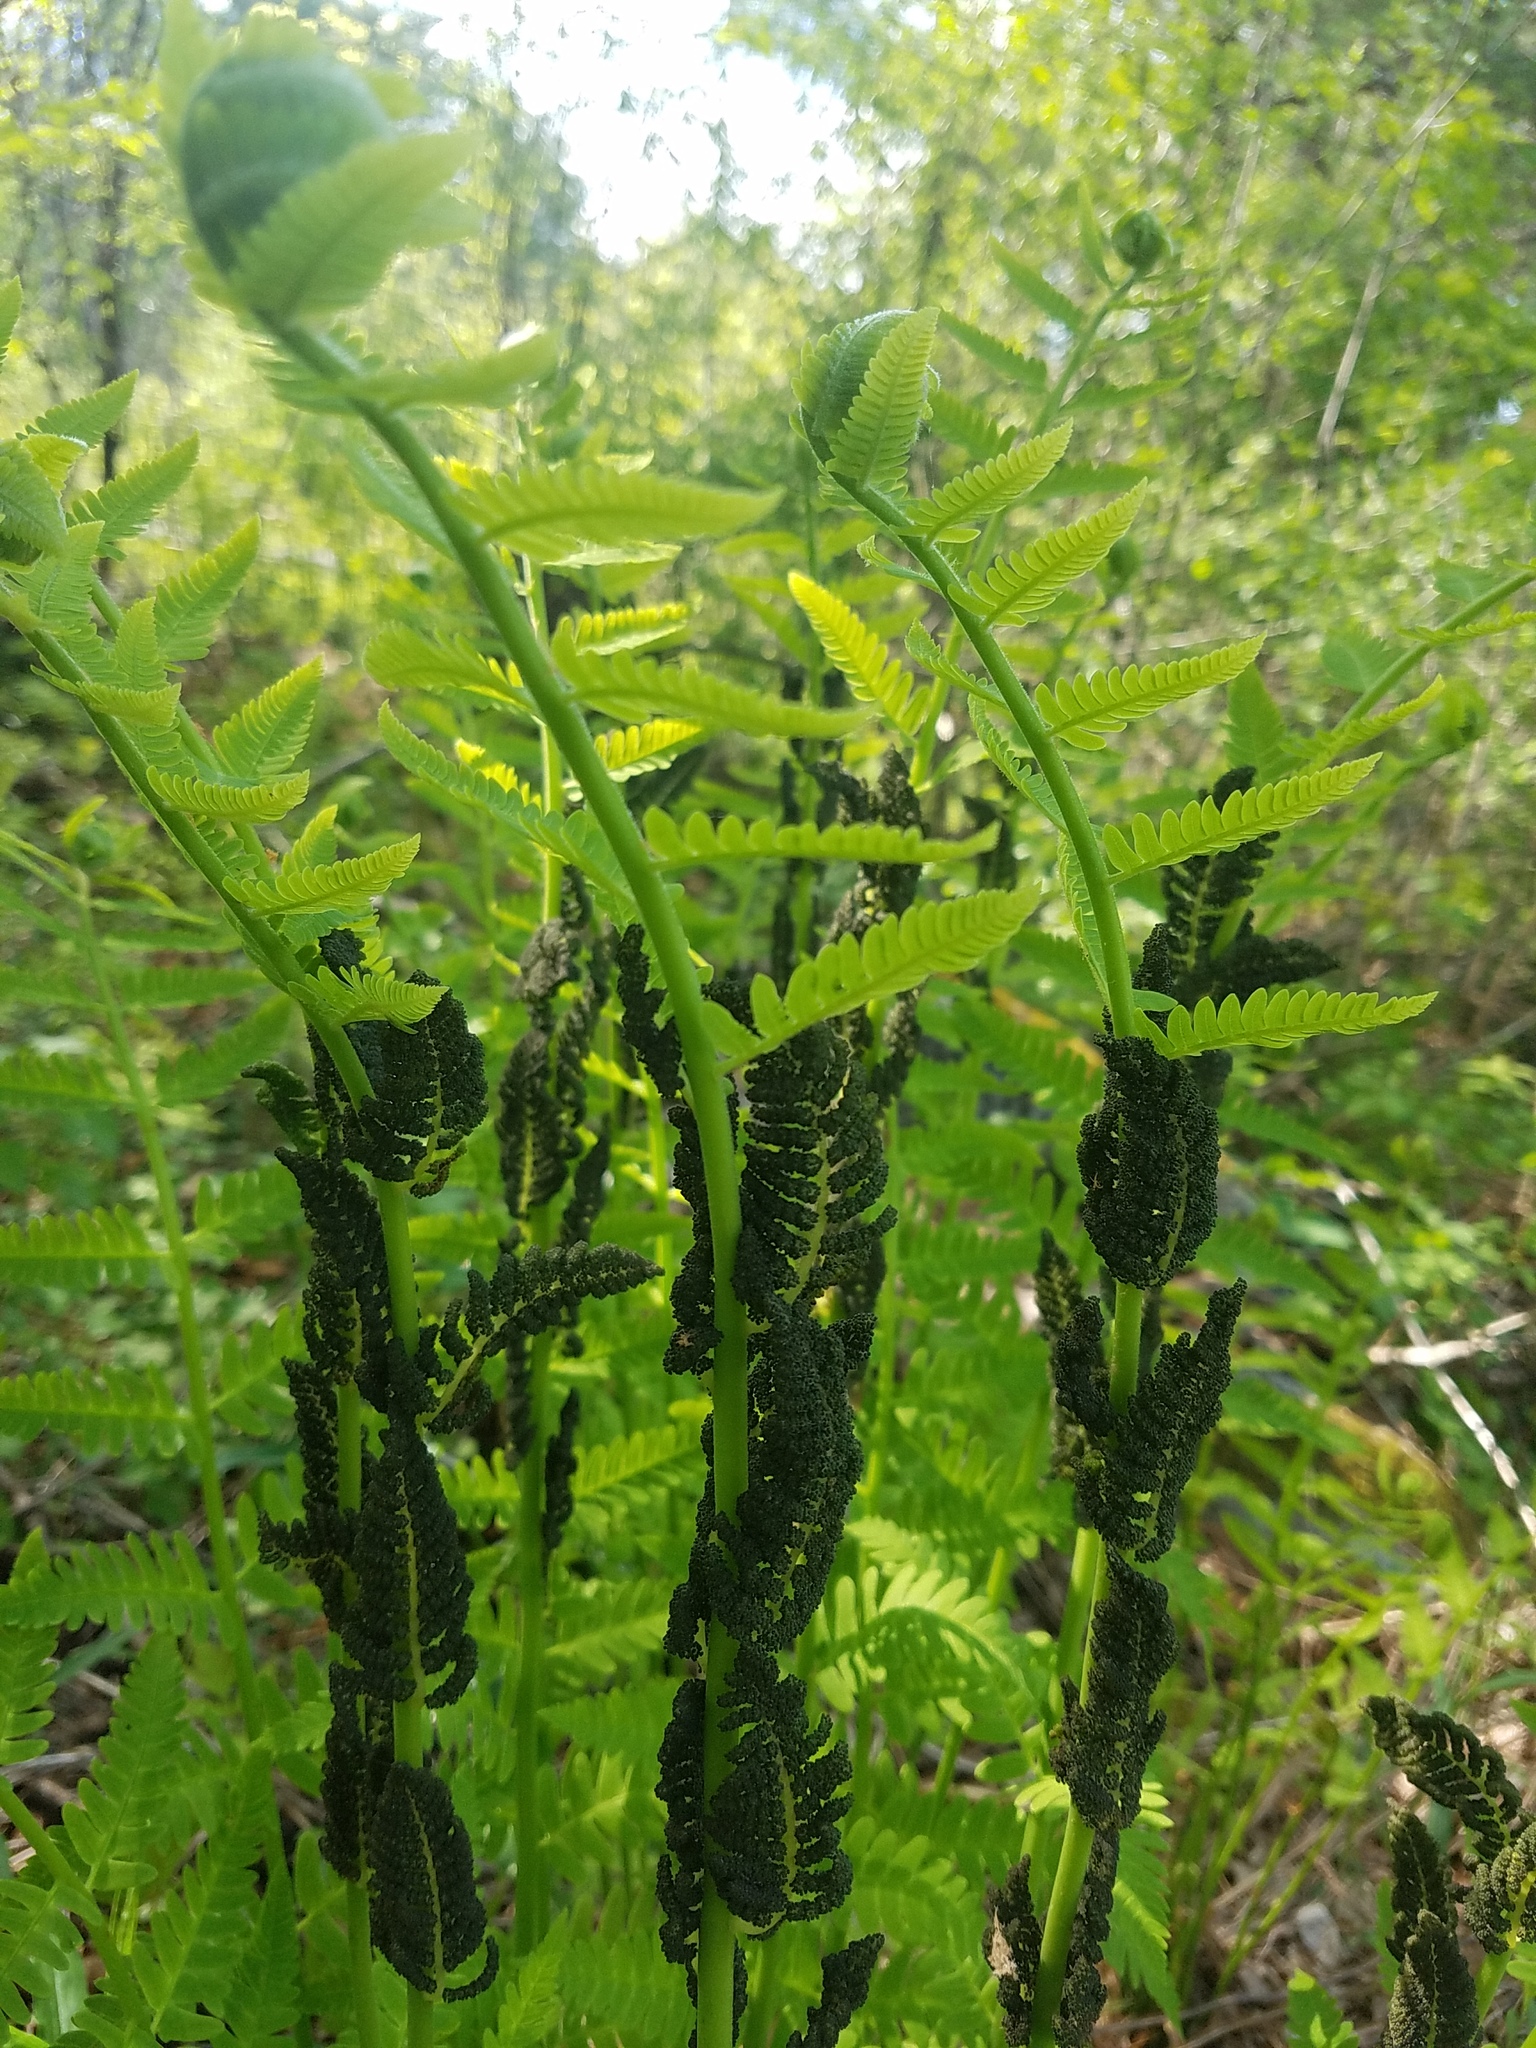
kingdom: Plantae
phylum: Tracheophyta
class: Polypodiopsida
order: Osmundales
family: Osmundaceae
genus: Claytosmunda
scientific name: Claytosmunda claytoniana
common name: Clayton's fern
